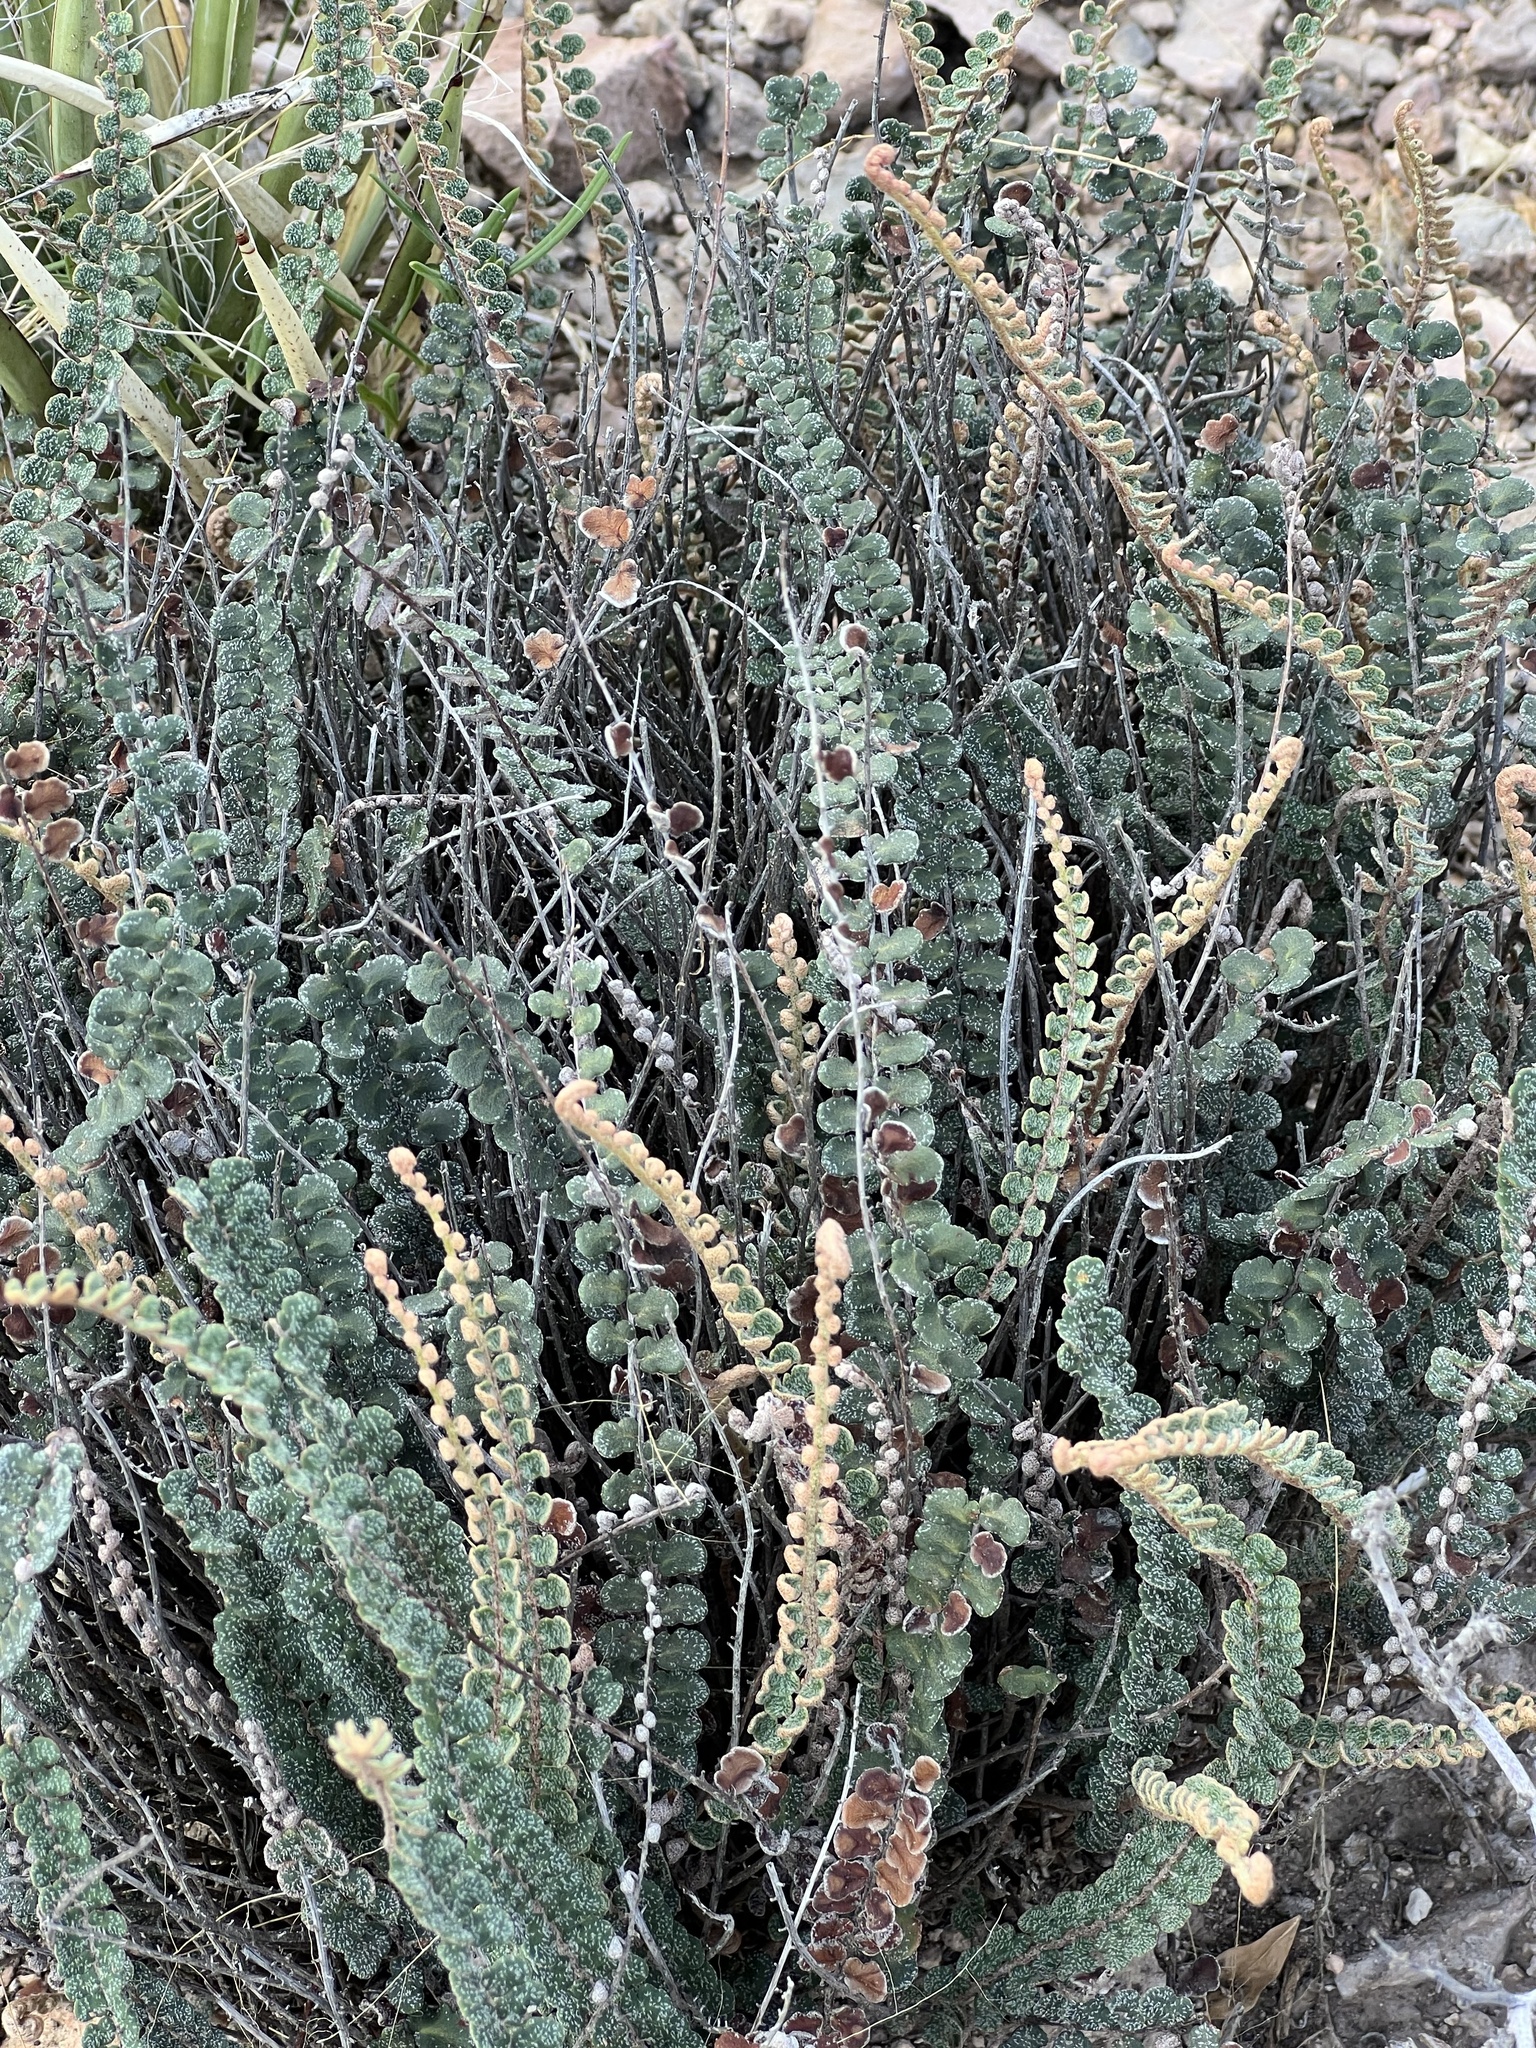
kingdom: Plantae
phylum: Tracheophyta
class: Polypodiopsida
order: Polypodiales
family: Pteridaceae
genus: Astrolepis
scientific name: Astrolepis cochisensis
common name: Scaly cloak fern
